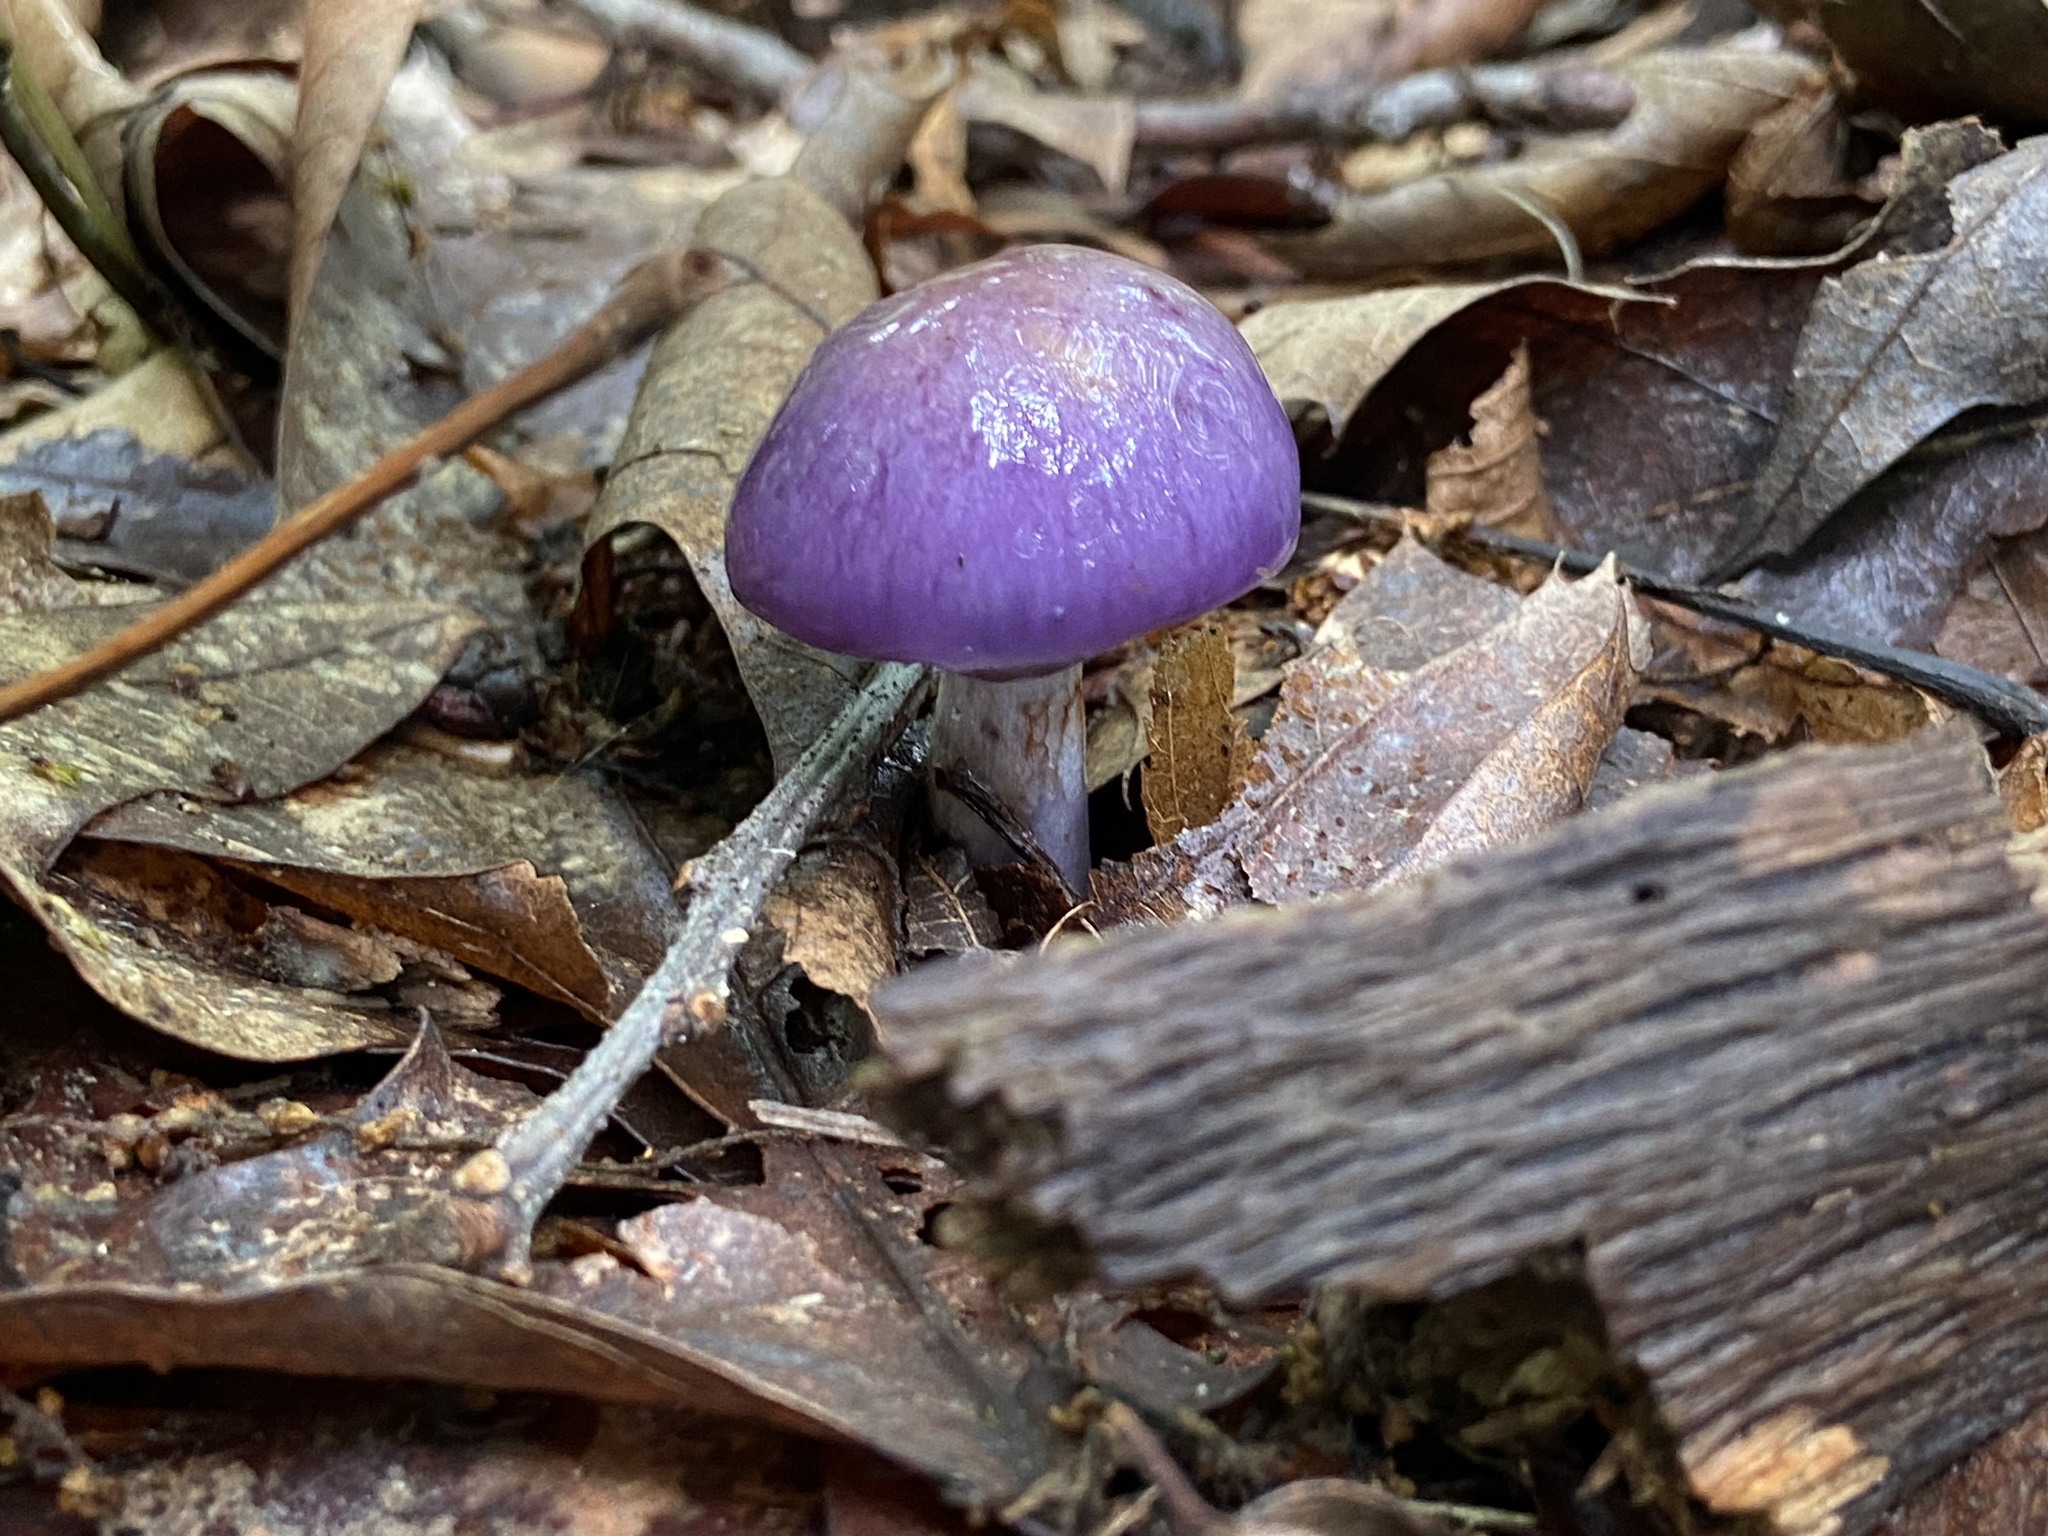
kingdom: Fungi
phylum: Basidiomycota
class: Agaricomycetes
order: Agaricales
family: Cortinariaceae
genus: Cortinarius
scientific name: Cortinarius iodes
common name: Viscid violet cort
